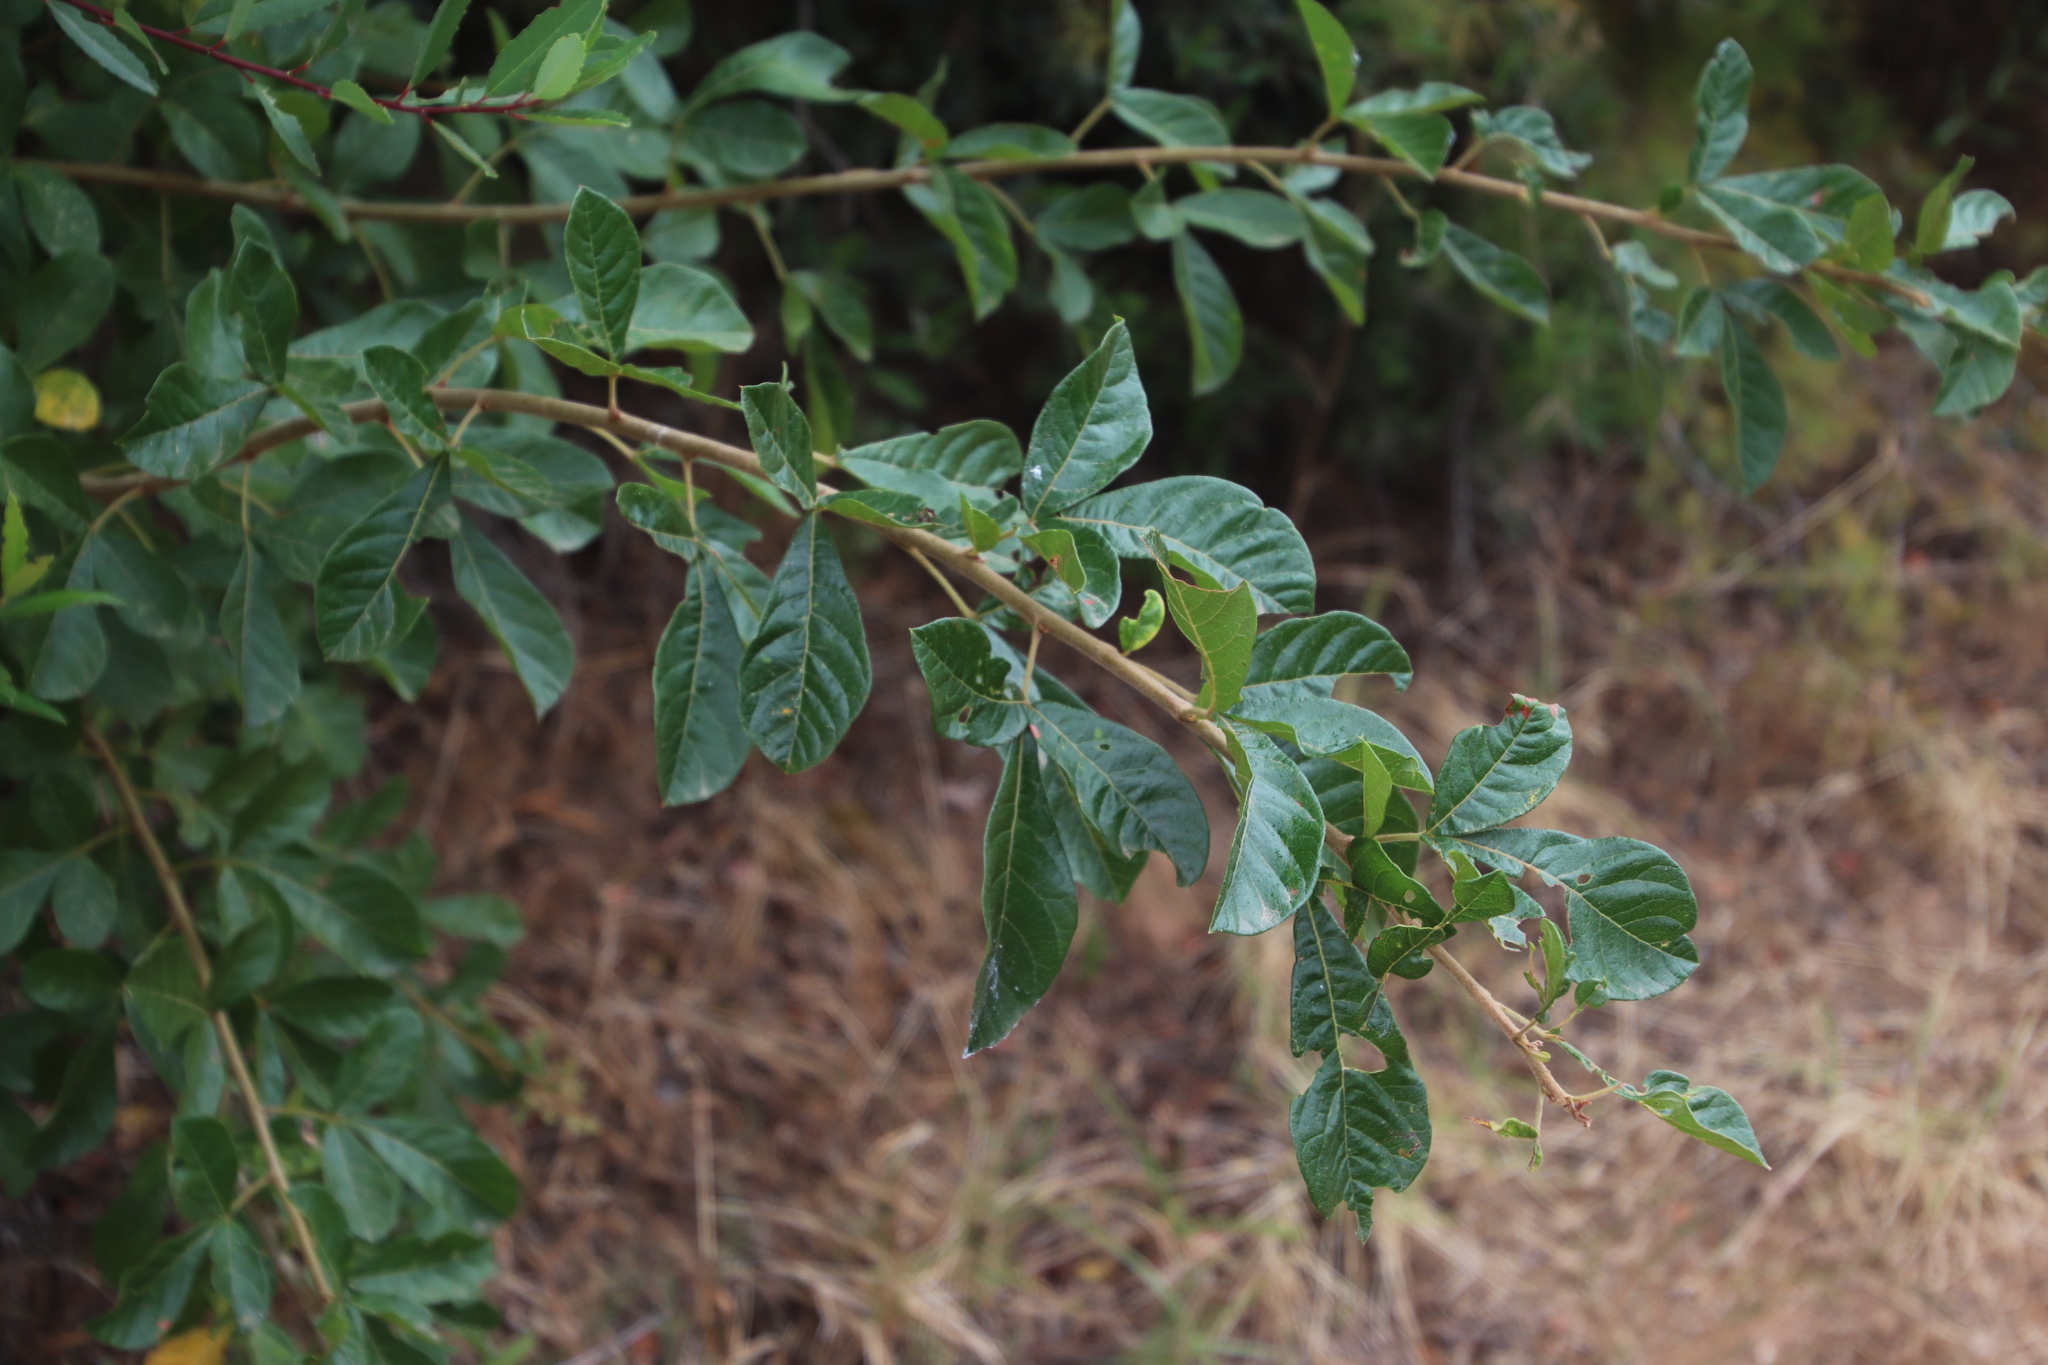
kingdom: Plantae
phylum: Tracheophyta
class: Magnoliopsida
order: Sapindales
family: Anacardiaceae
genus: Searsia
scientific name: Searsia rehmanniana
